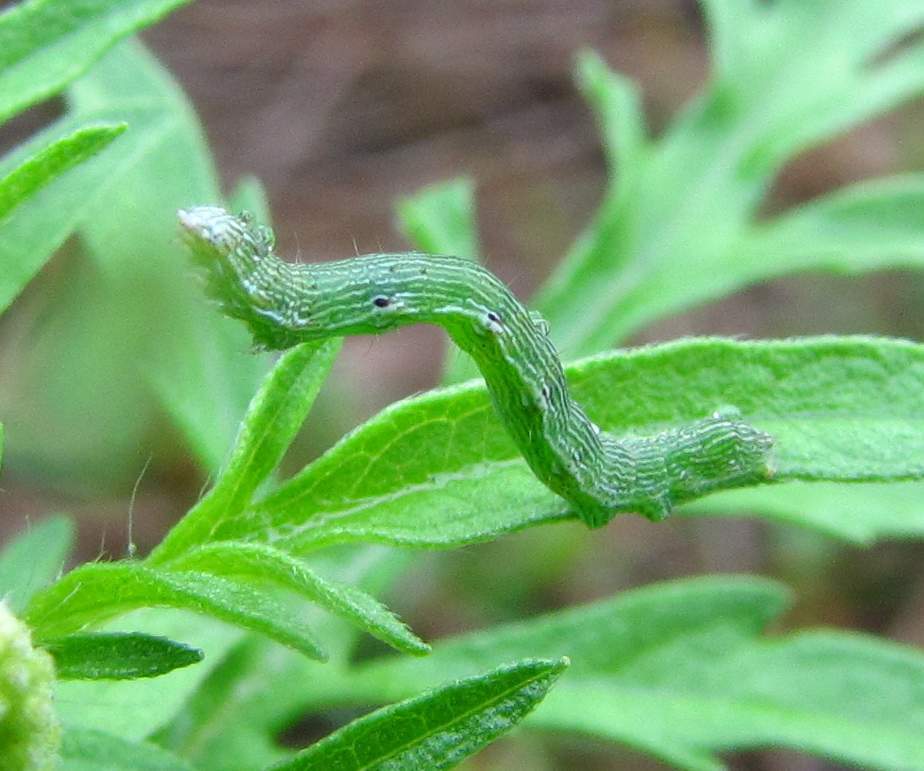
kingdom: Animalia
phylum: Arthropoda
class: Insecta
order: Lepidoptera
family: Noctuidae
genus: Acontia
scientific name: Acontia candefacta
